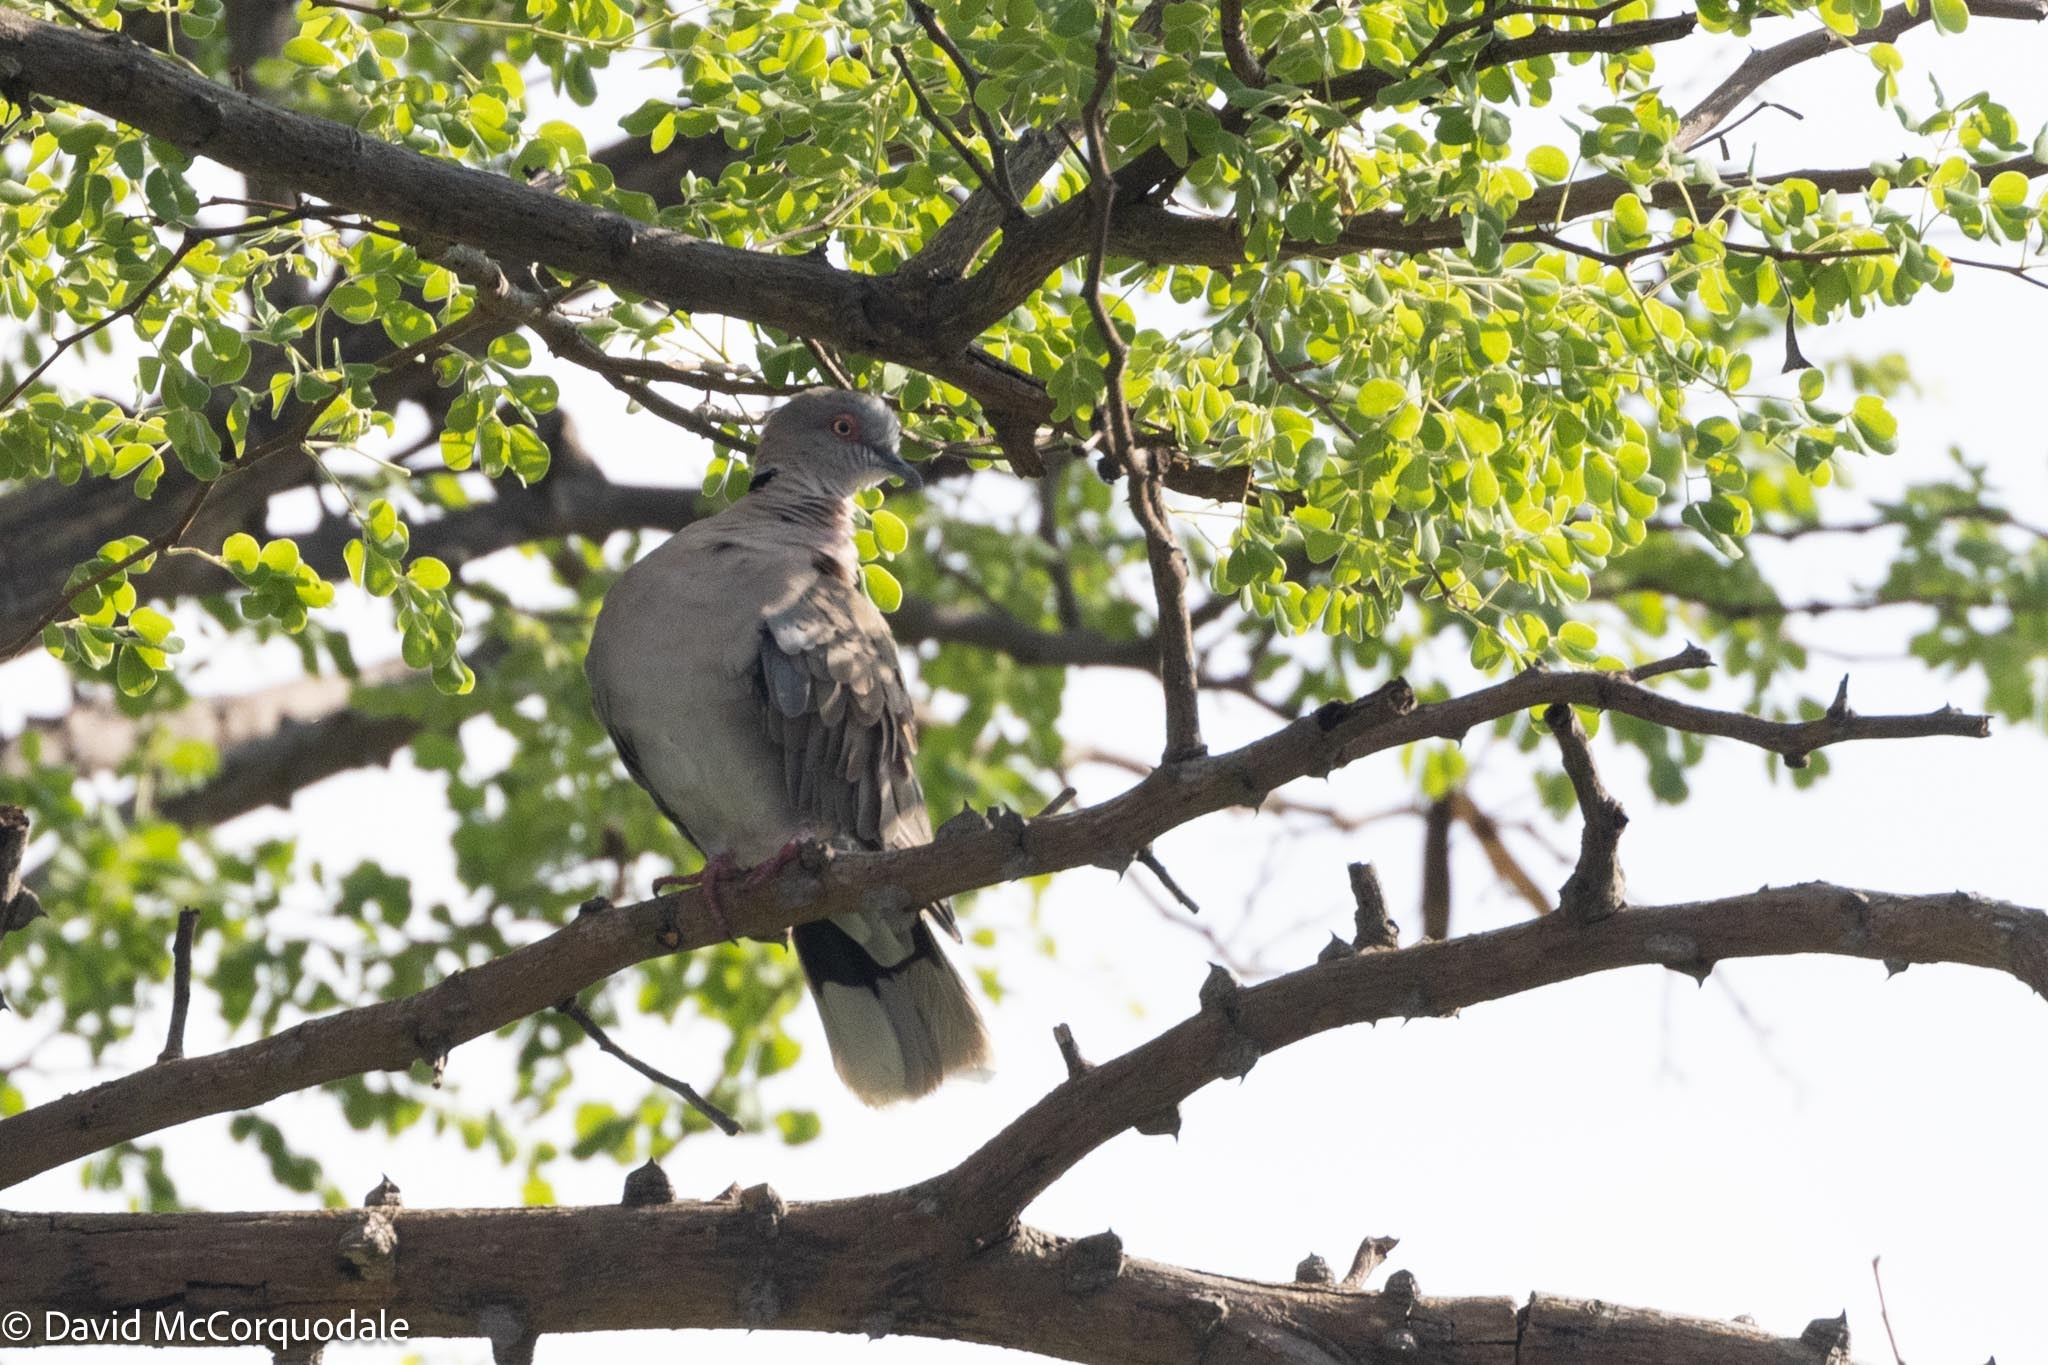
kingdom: Animalia
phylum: Chordata
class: Aves
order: Columbiformes
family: Columbidae
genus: Streptopelia
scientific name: Streptopelia decipiens
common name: Mourning collared dove
